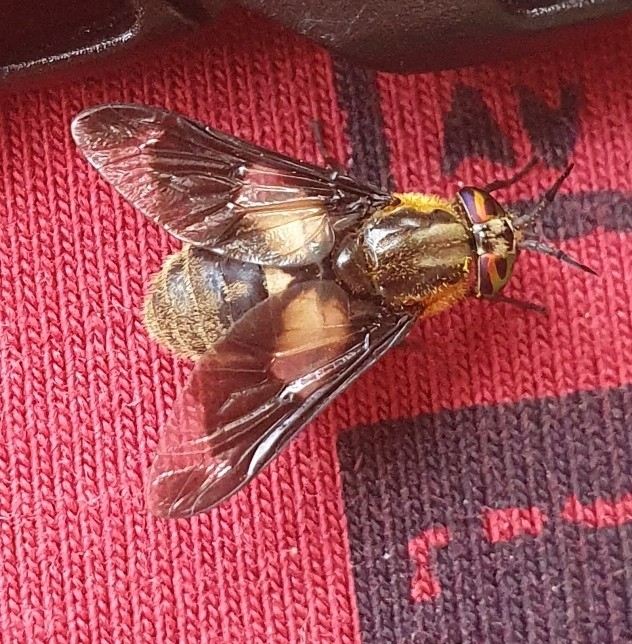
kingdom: Animalia
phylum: Arthropoda
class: Insecta
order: Diptera
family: Tabanidae
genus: Chrysops
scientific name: Chrysops caecutiens
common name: Splayed deerfly
